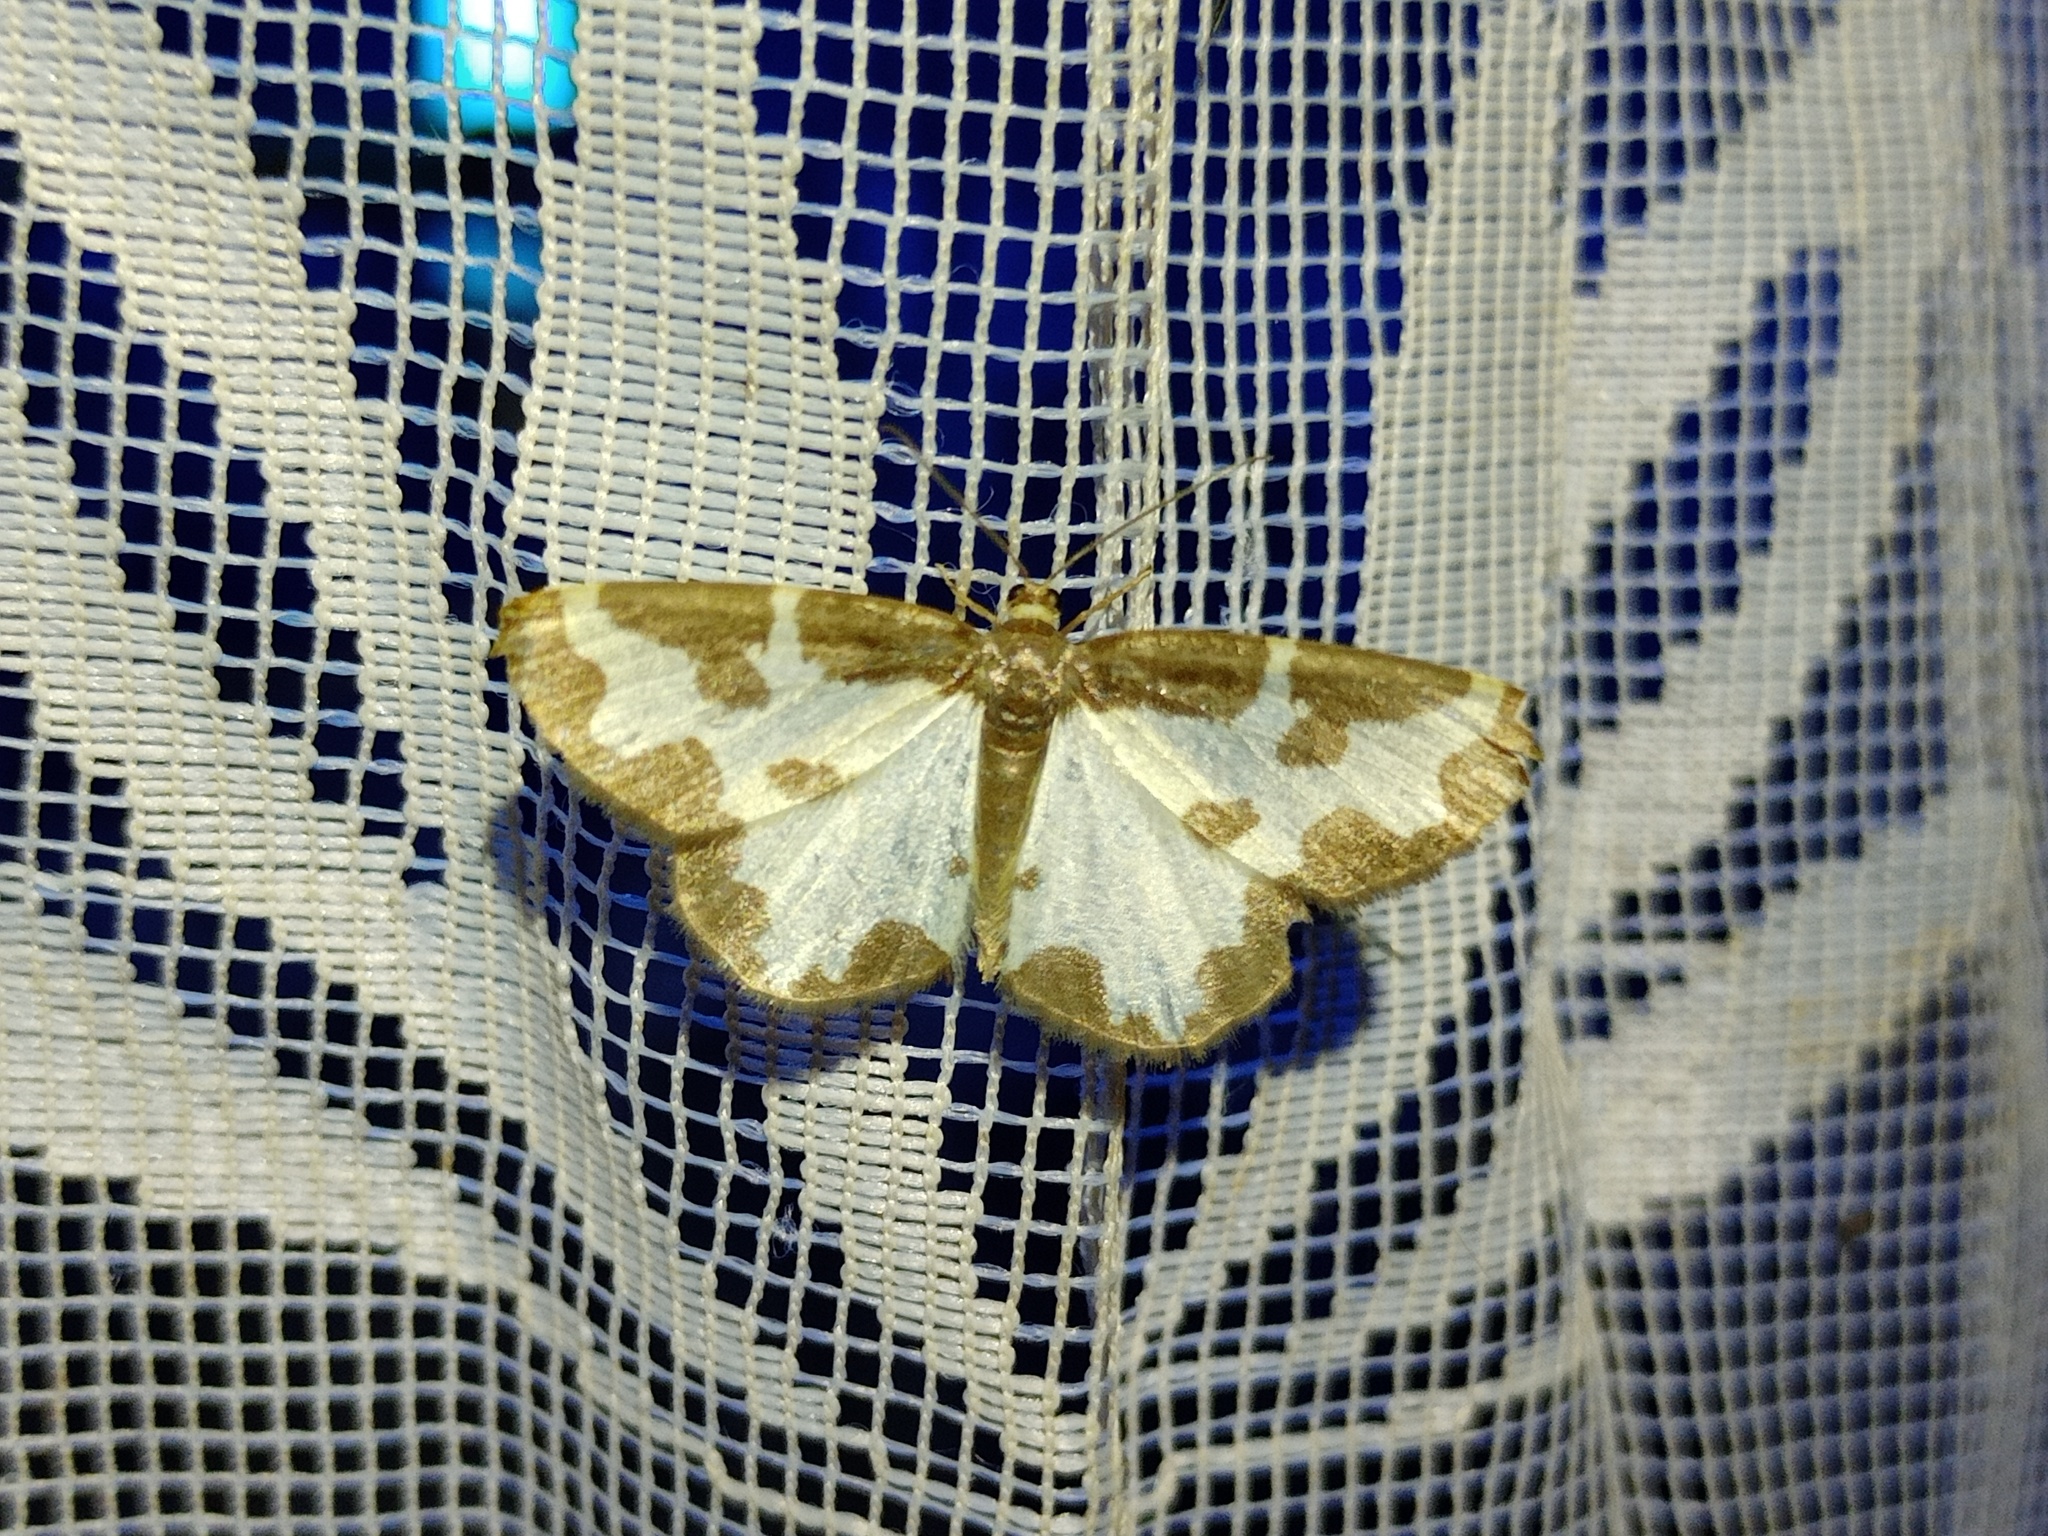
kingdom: Animalia
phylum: Arthropoda
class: Insecta
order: Lepidoptera
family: Geometridae
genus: Lomaspilis
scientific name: Lomaspilis marginata
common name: Clouded border
